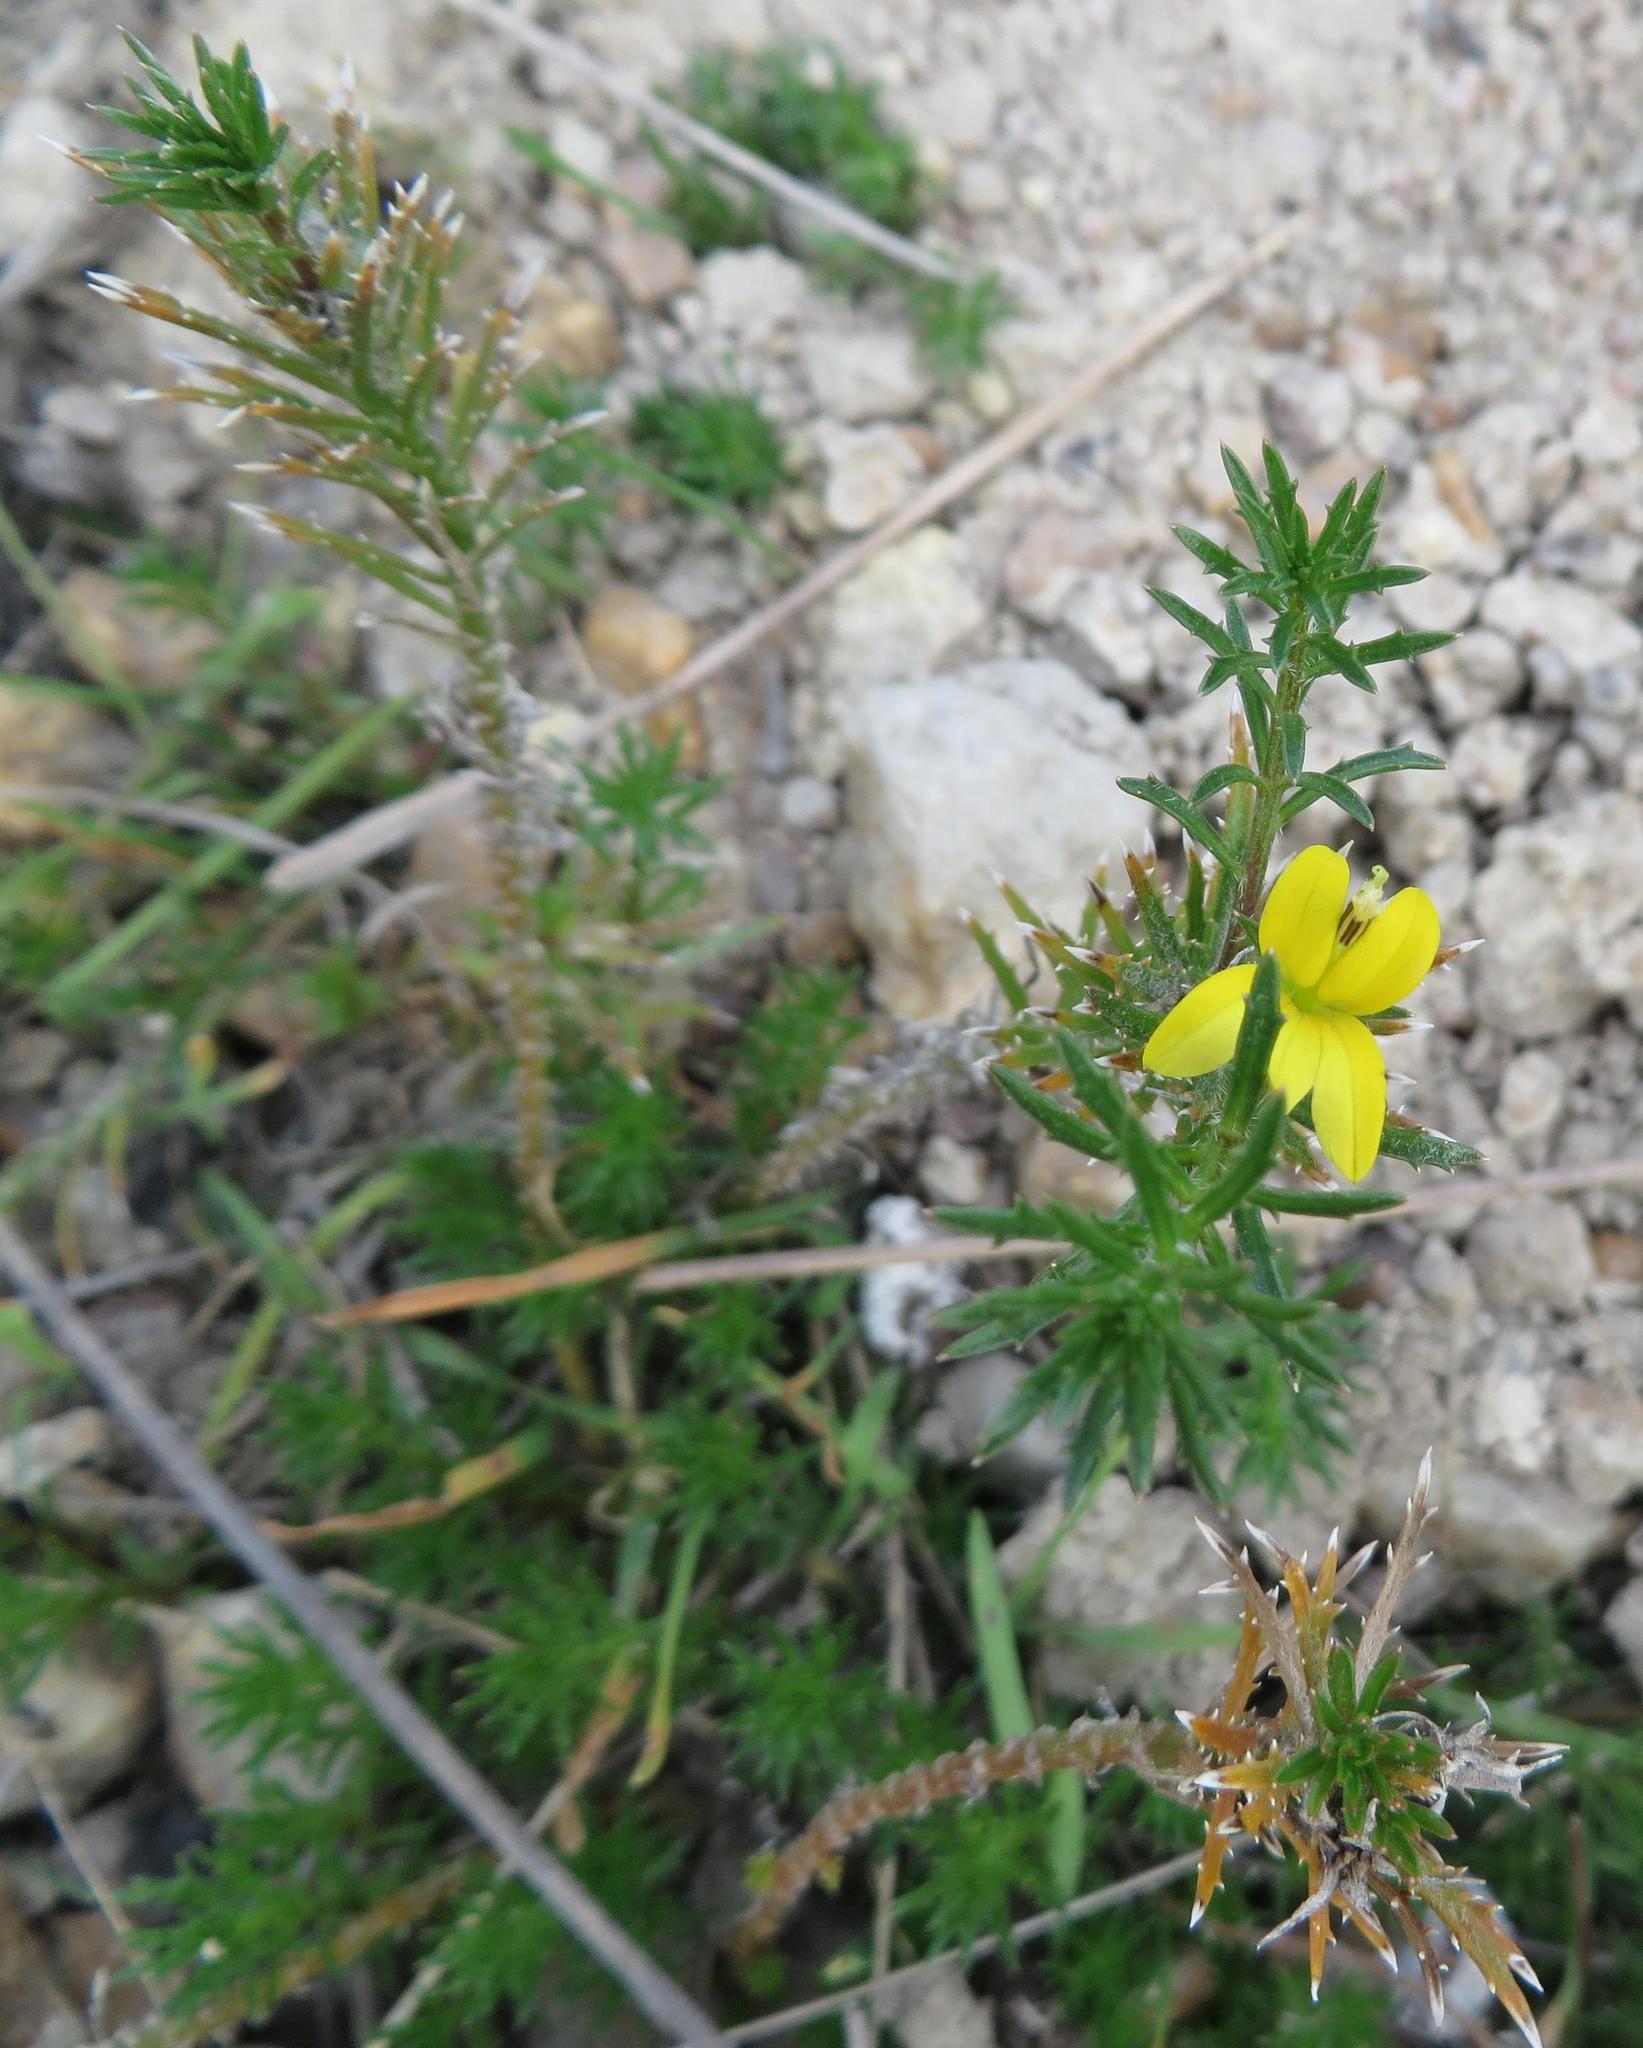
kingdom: Plantae
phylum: Tracheophyta
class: Magnoliopsida
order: Asterales
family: Campanulaceae
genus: Monopsis
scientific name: Monopsis variifolia
